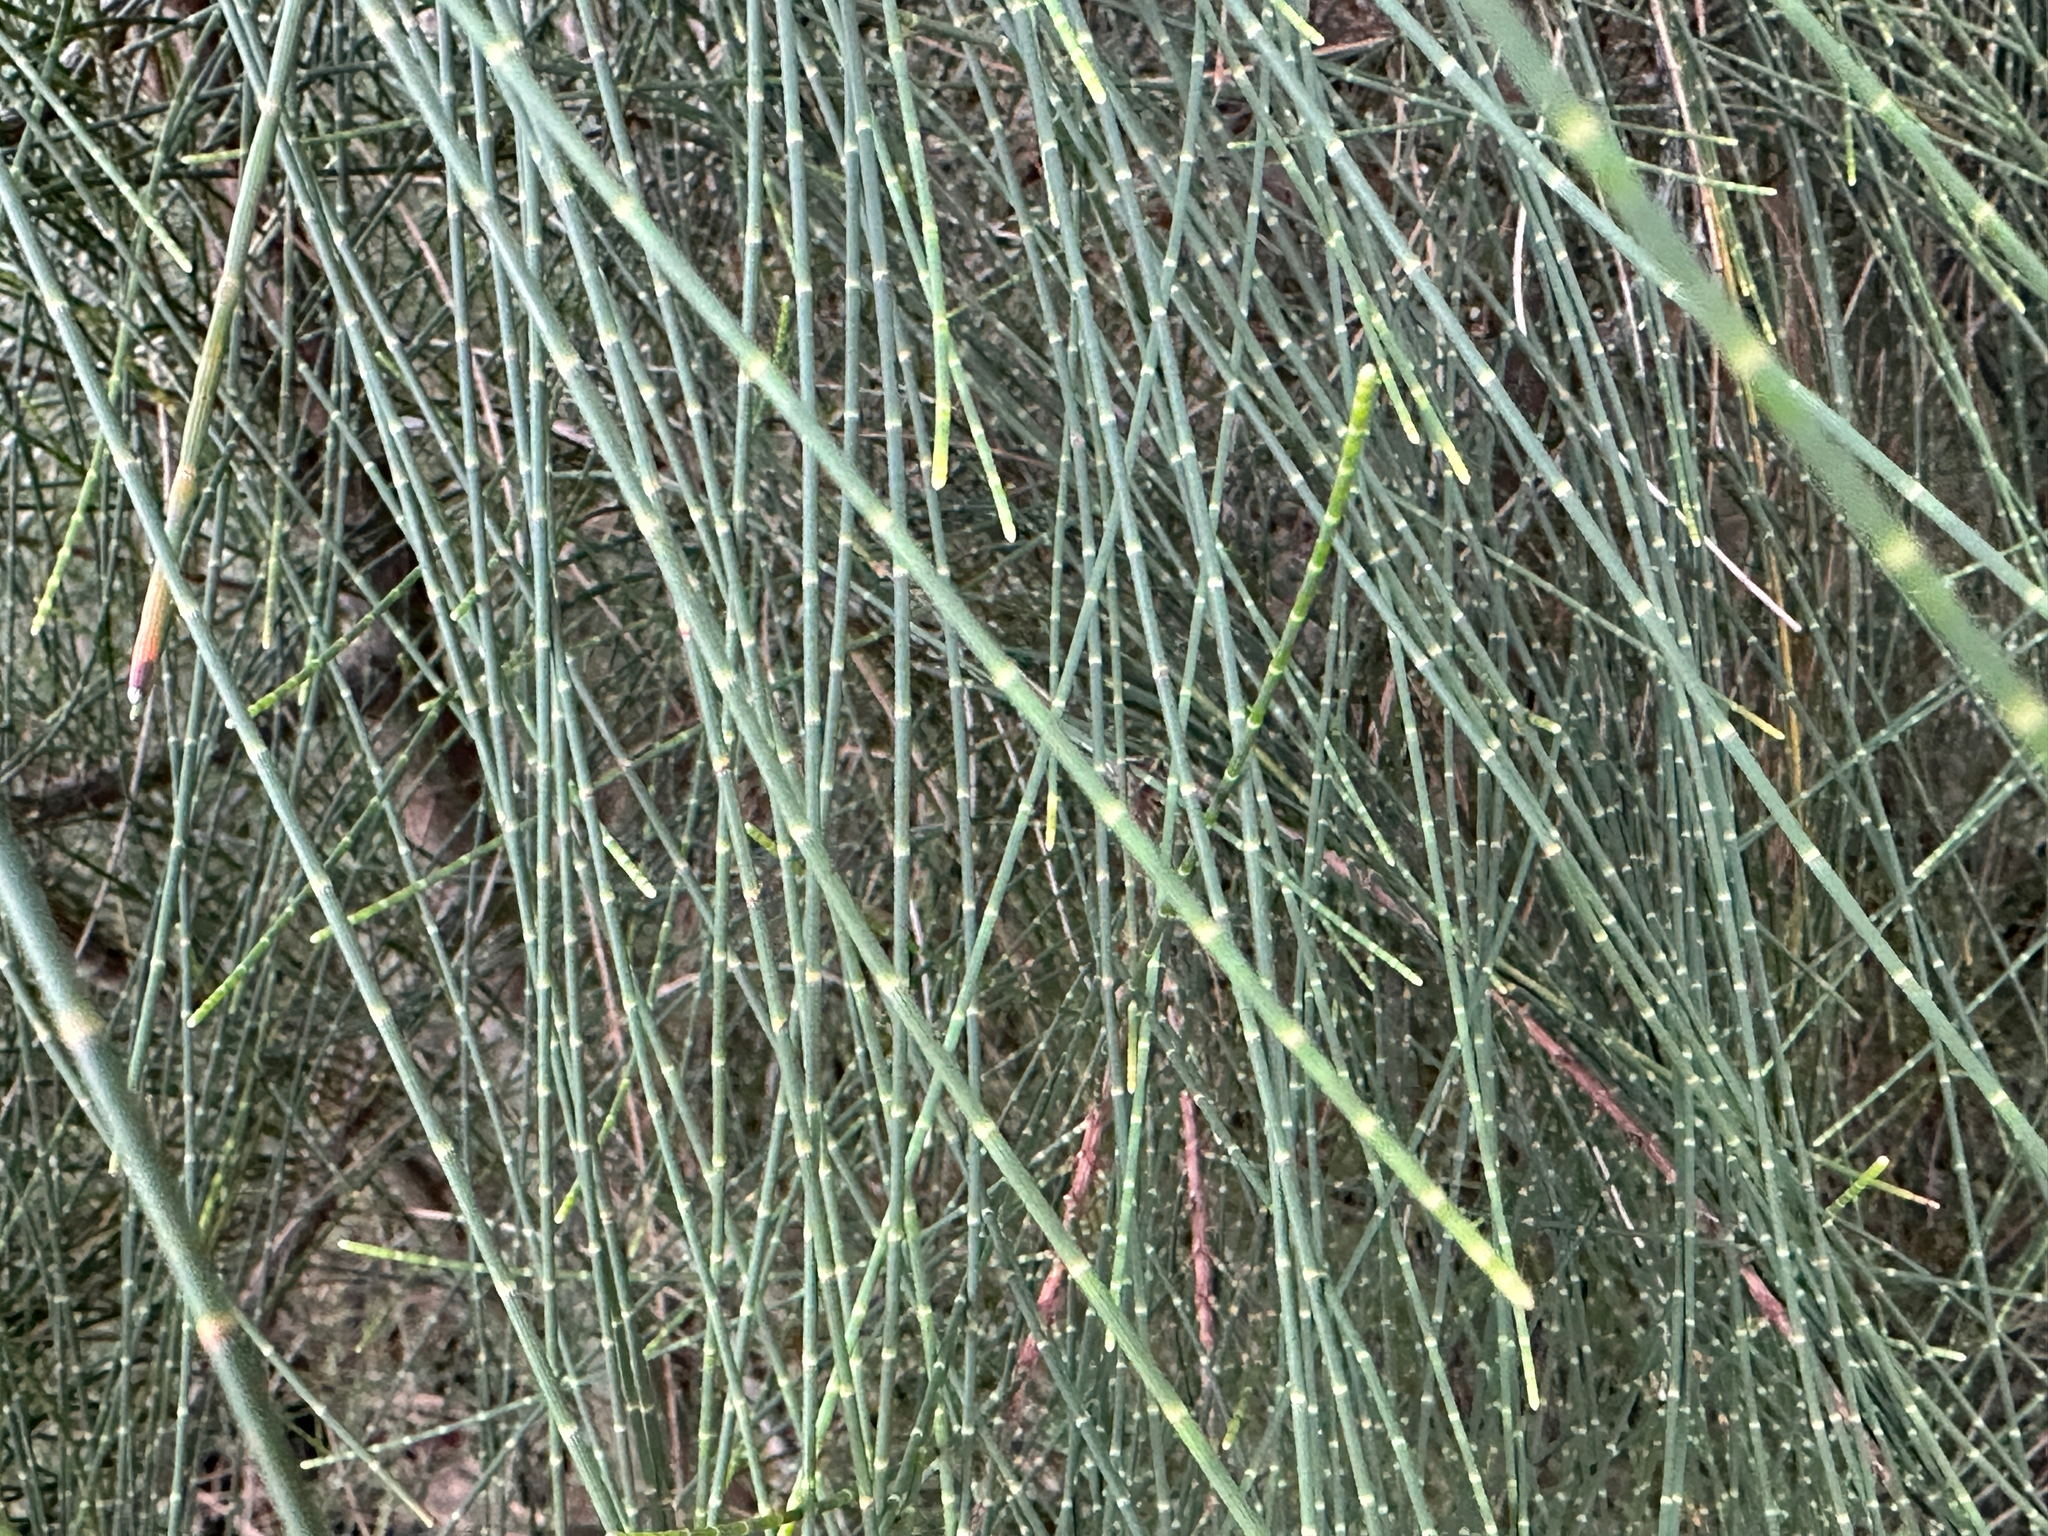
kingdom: Plantae
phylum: Tracheophyta
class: Magnoliopsida
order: Fagales
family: Casuarinaceae
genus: Casuarina
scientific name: Casuarina equisetifolia
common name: Beach sheoak
